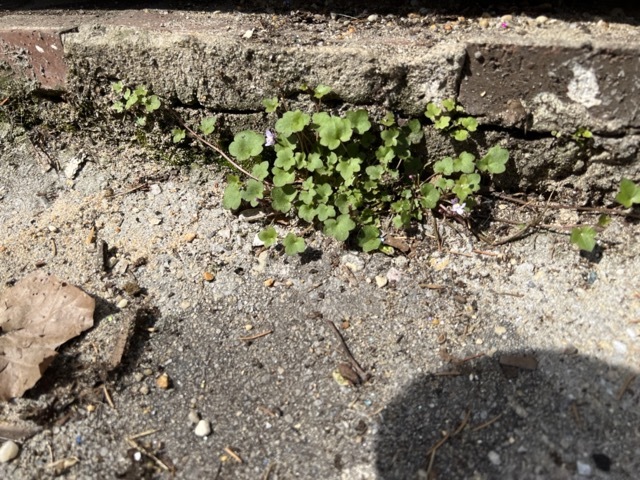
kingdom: Plantae
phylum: Tracheophyta
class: Magnoliopsida
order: Lamiales
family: Plantaginaceae
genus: Cymbalaria
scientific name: Cymbalaria muralis
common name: Ivy-leaved toadflax
